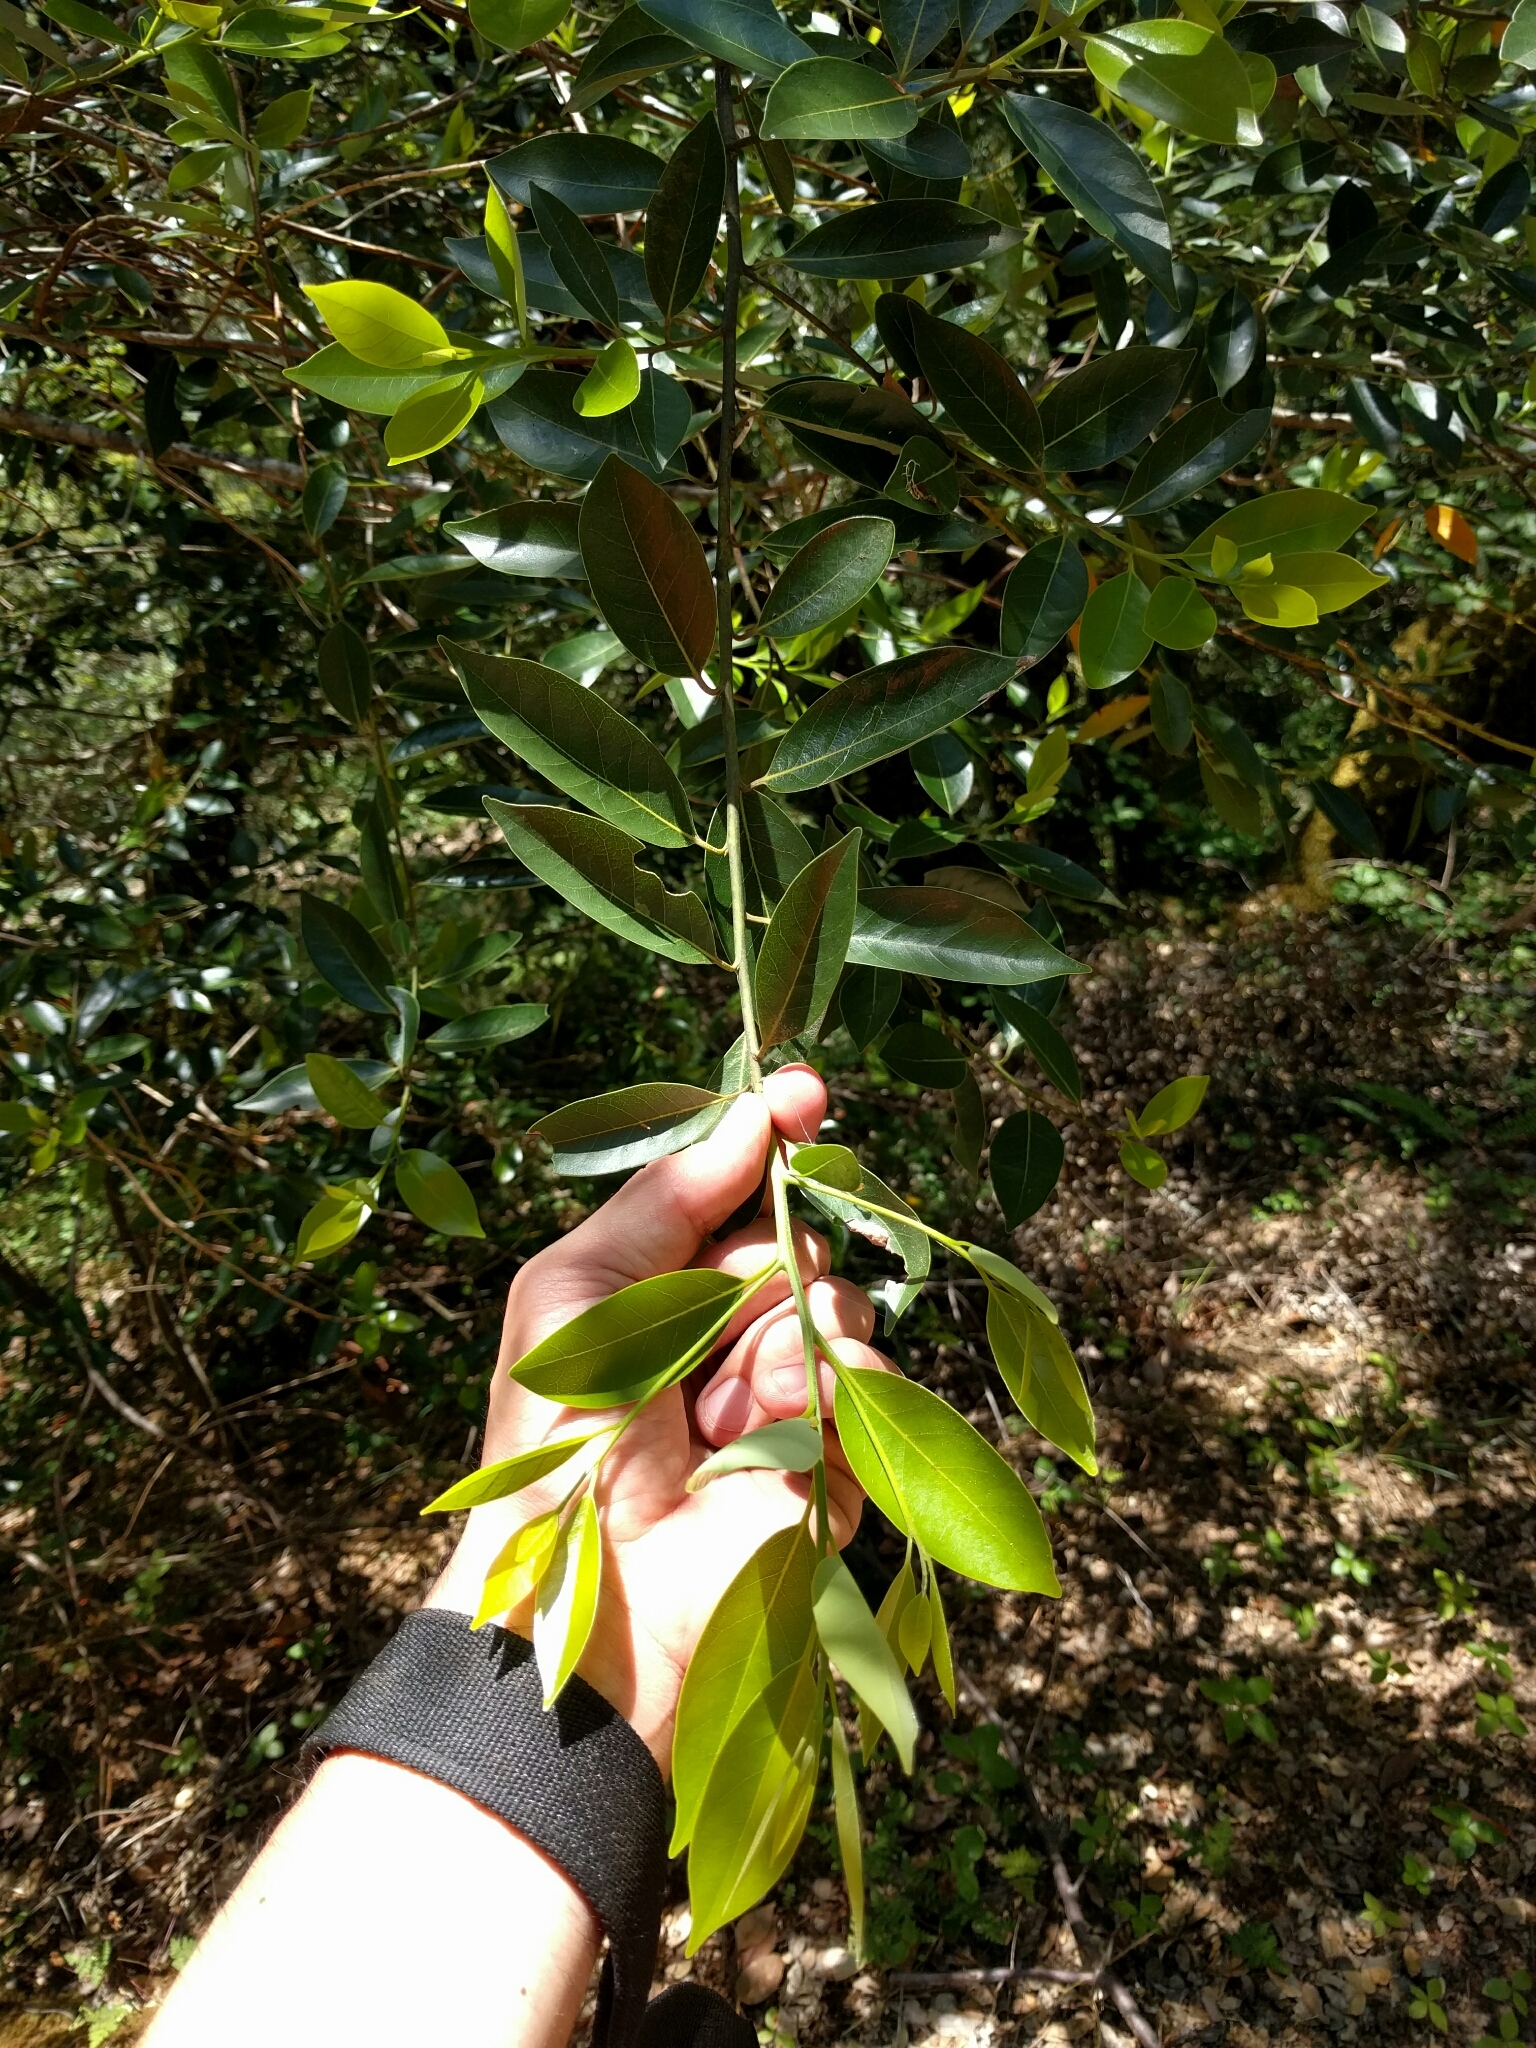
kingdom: Plantae
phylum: Tracheophyta
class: Magnoliopsida
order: Laurales
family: Lauraceae
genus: Umbellularia
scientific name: Umbellularia californica
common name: California bay
